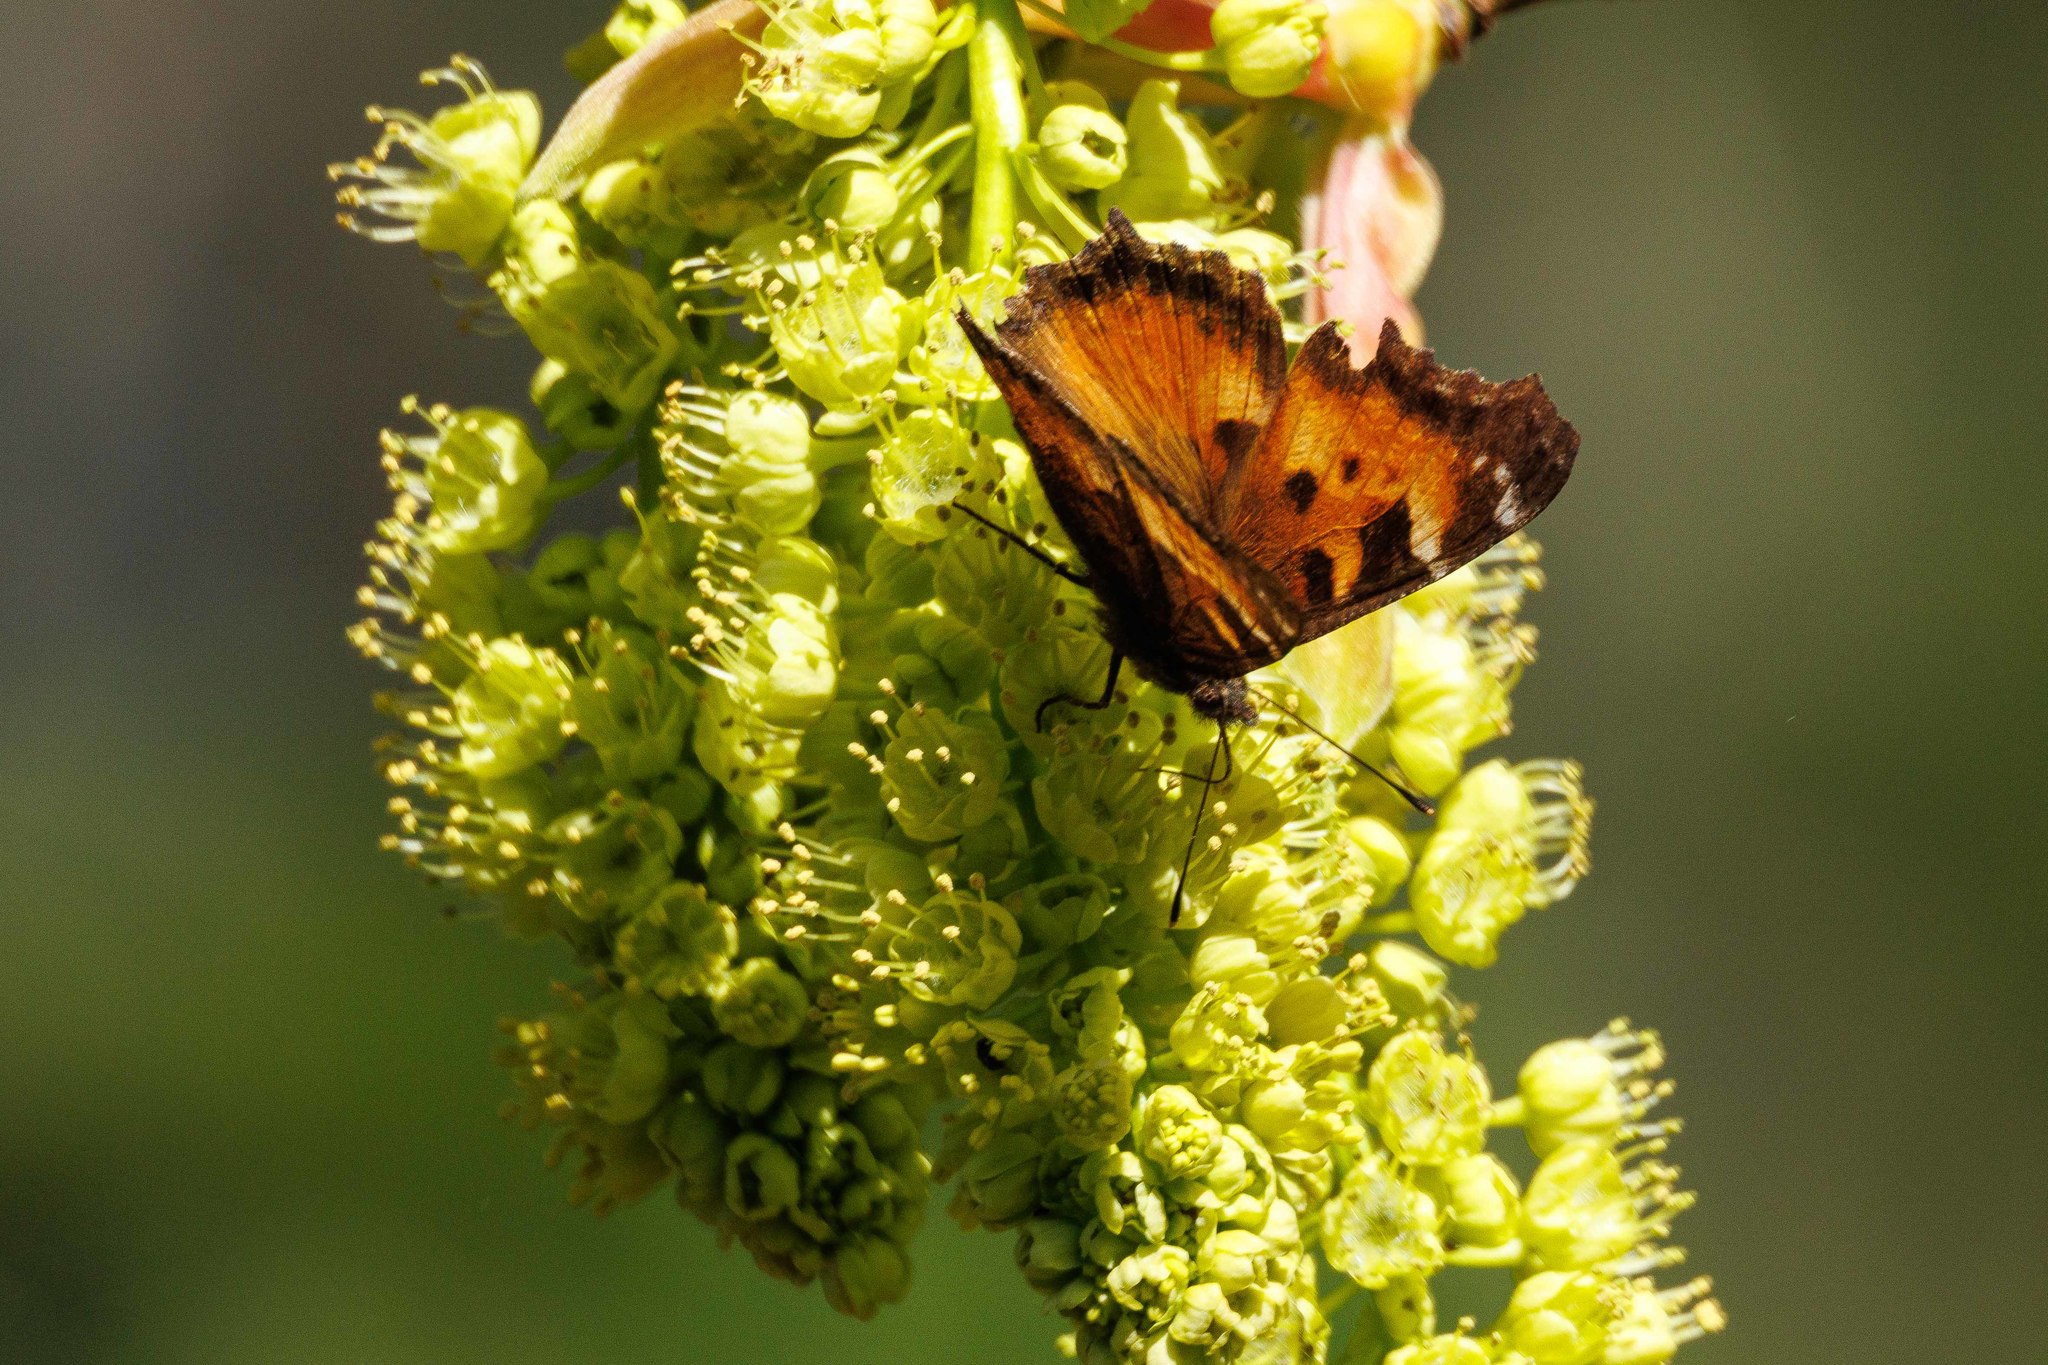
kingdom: Animalia
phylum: Arthropoda
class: Insecta
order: Lepidoptera
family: Nymphalidae
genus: Nymphalis
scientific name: Nymphalis californica
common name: California tortoiseshell
